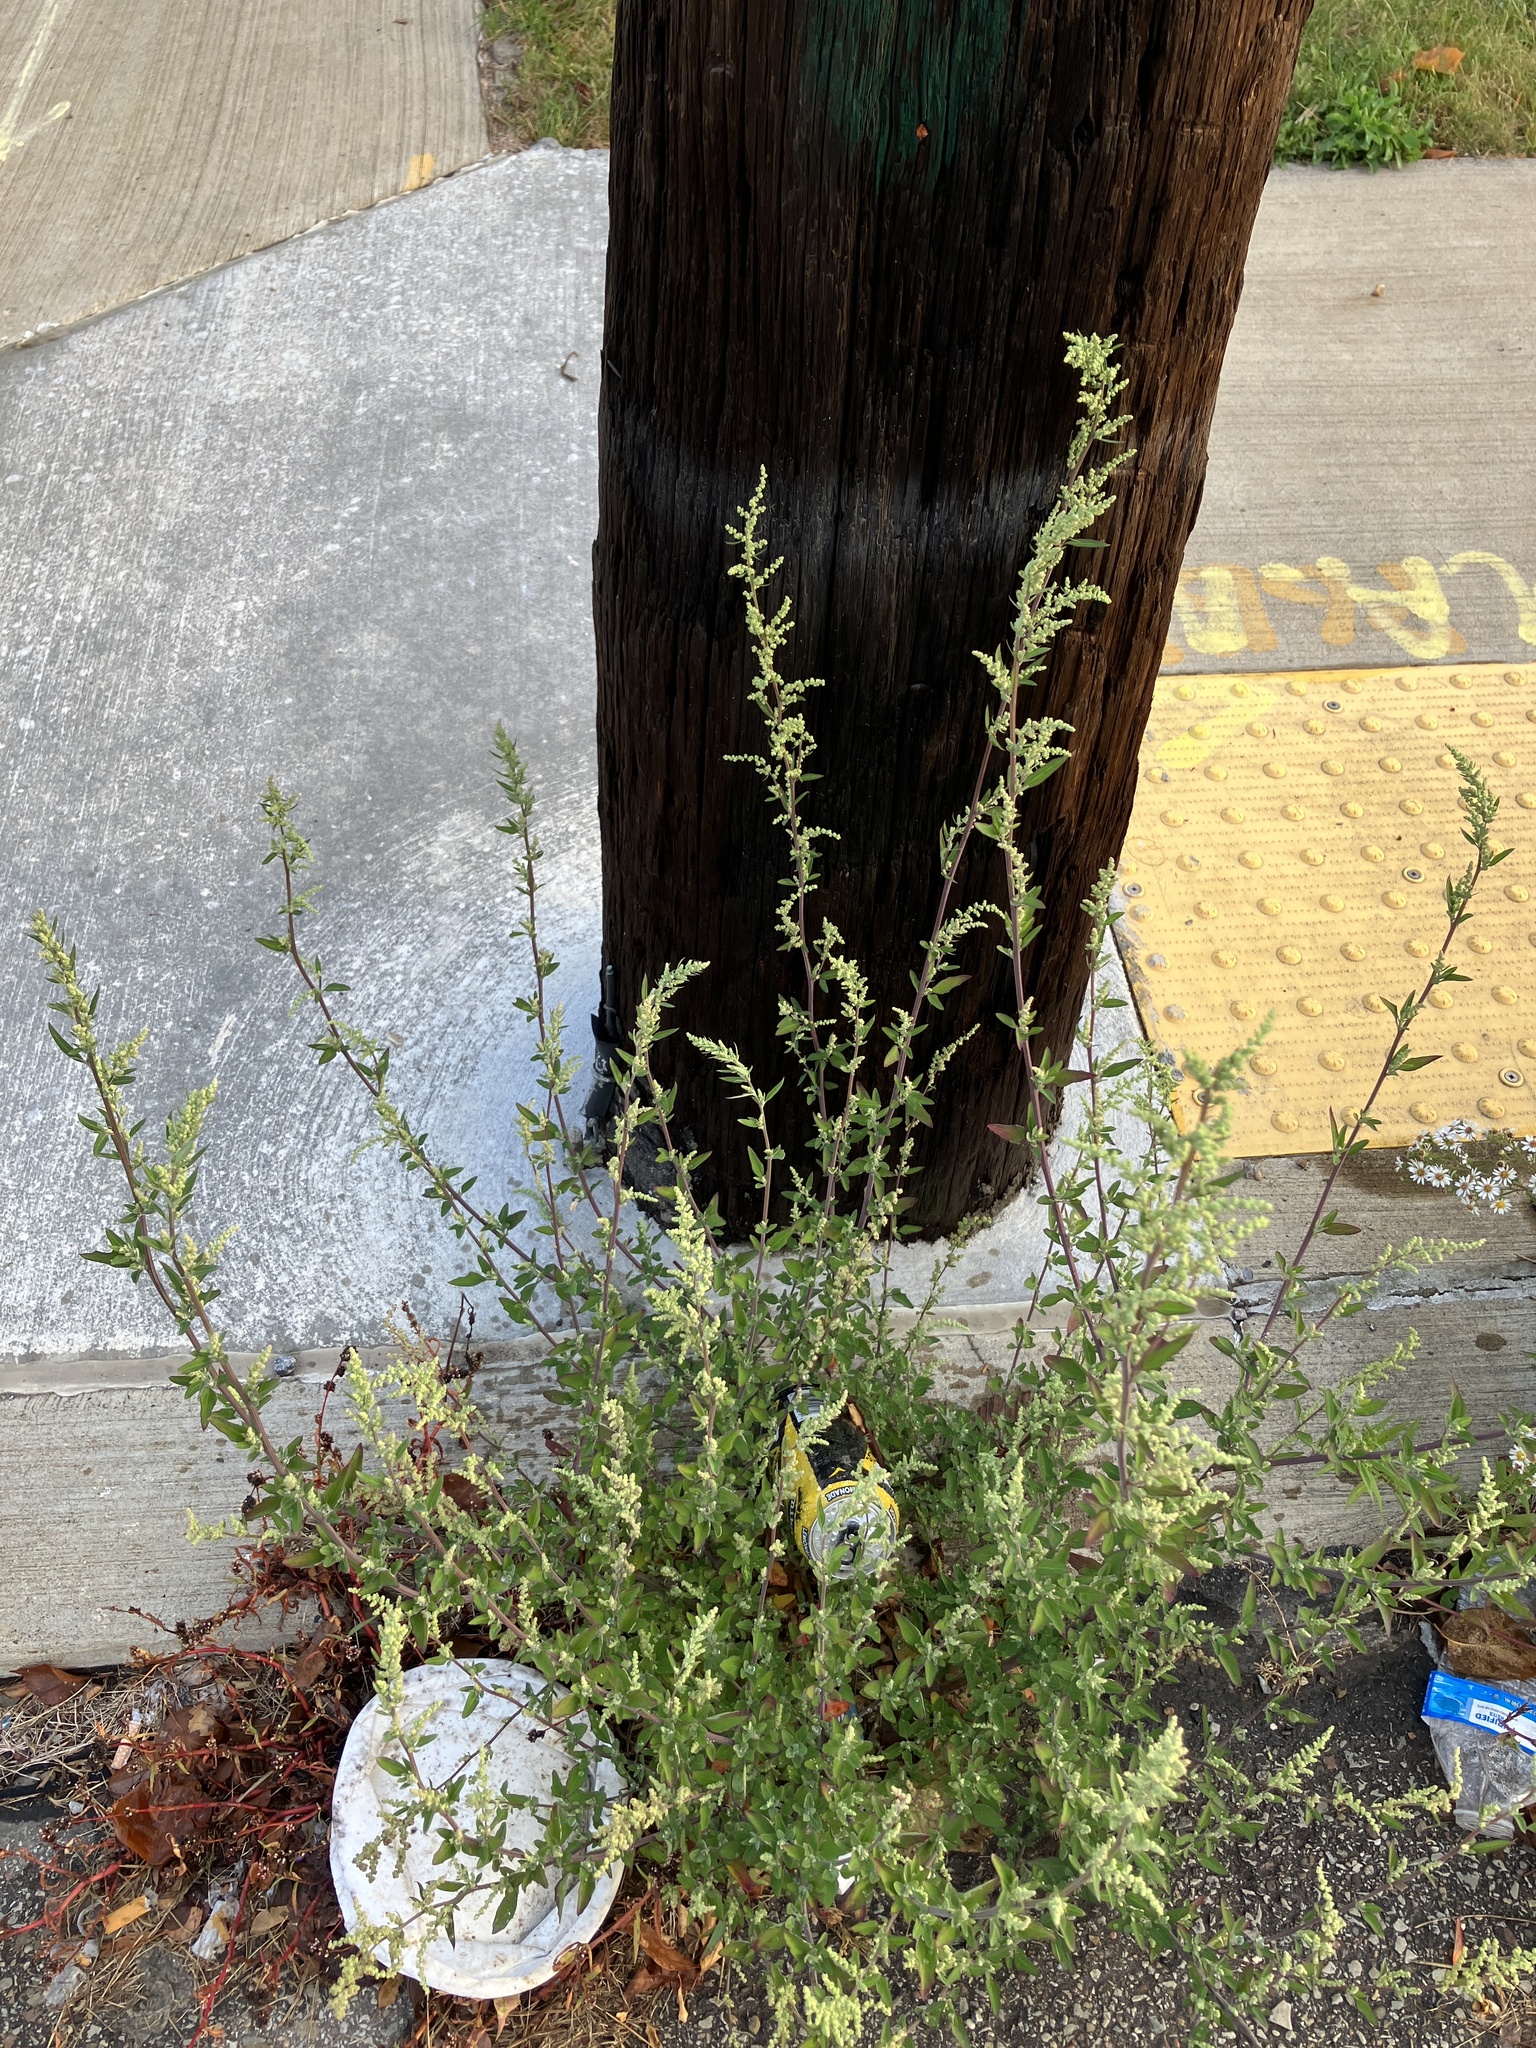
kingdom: Plantae
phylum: Tracheophyta
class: Magnoliopsida
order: Caryophyllales
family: Amaranthaceae
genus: Chenopodium
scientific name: Chenopodium album
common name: Fat-hen
